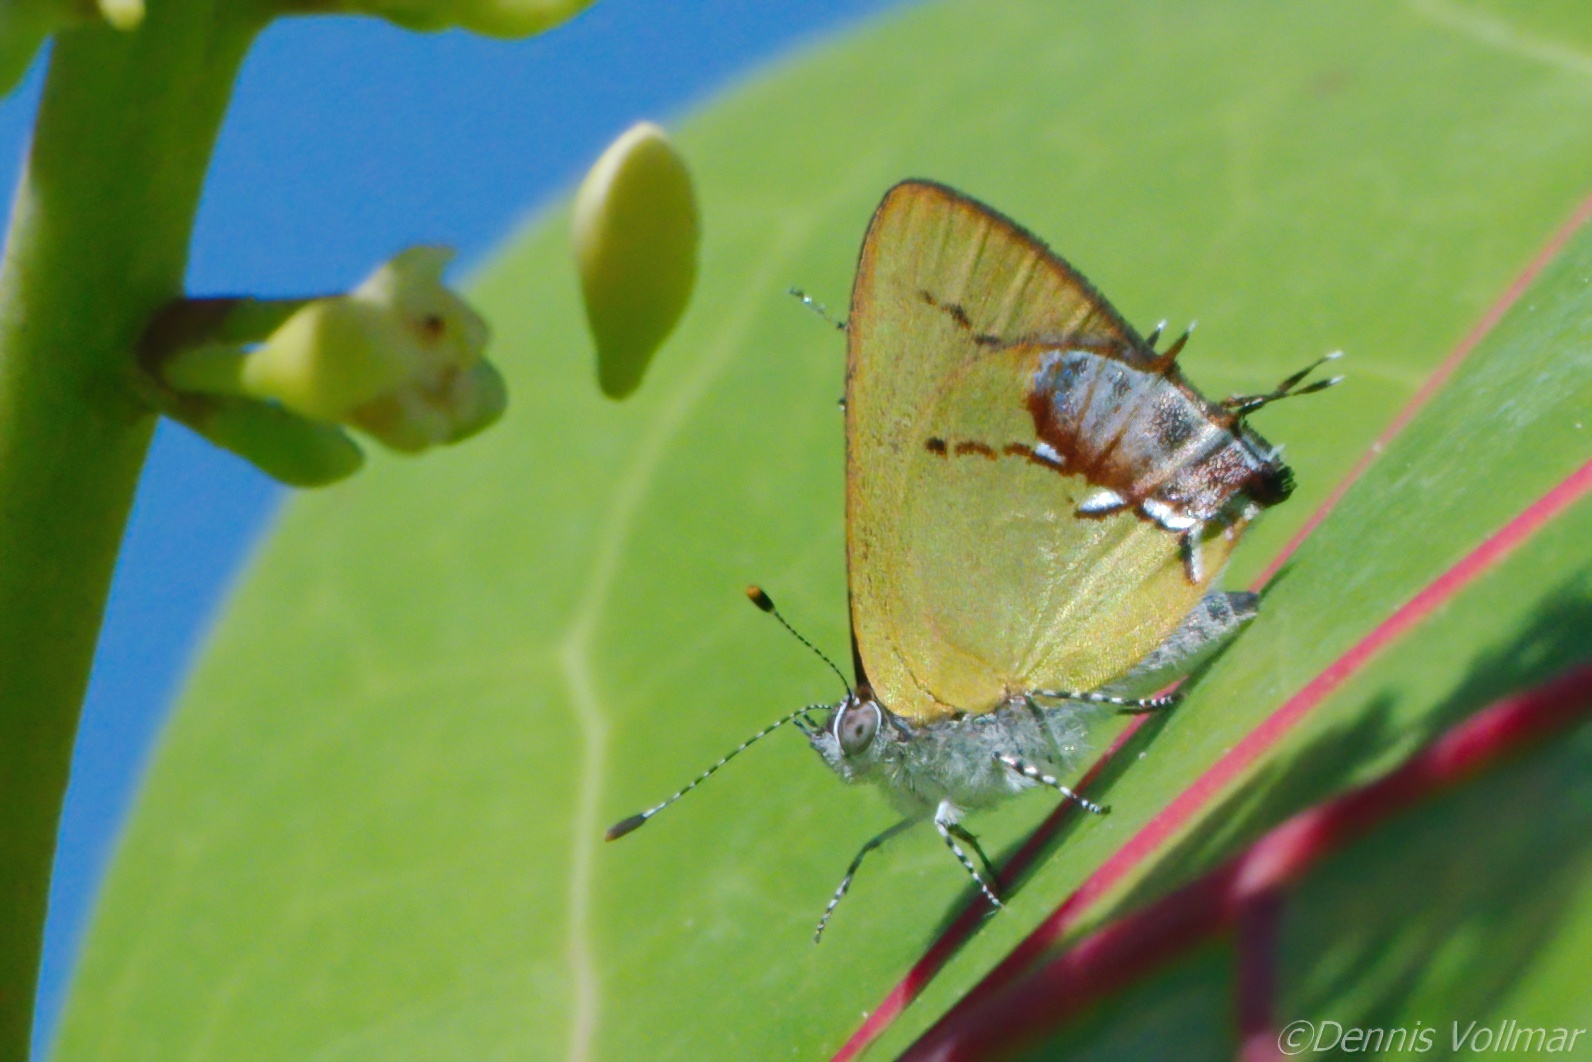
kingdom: Animalia
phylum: Arthropoda
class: Insecta
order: Lepidoptera
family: Lycaenidae
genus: Thecla
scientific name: Thecla maesites
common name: Verde azul hairstreak
